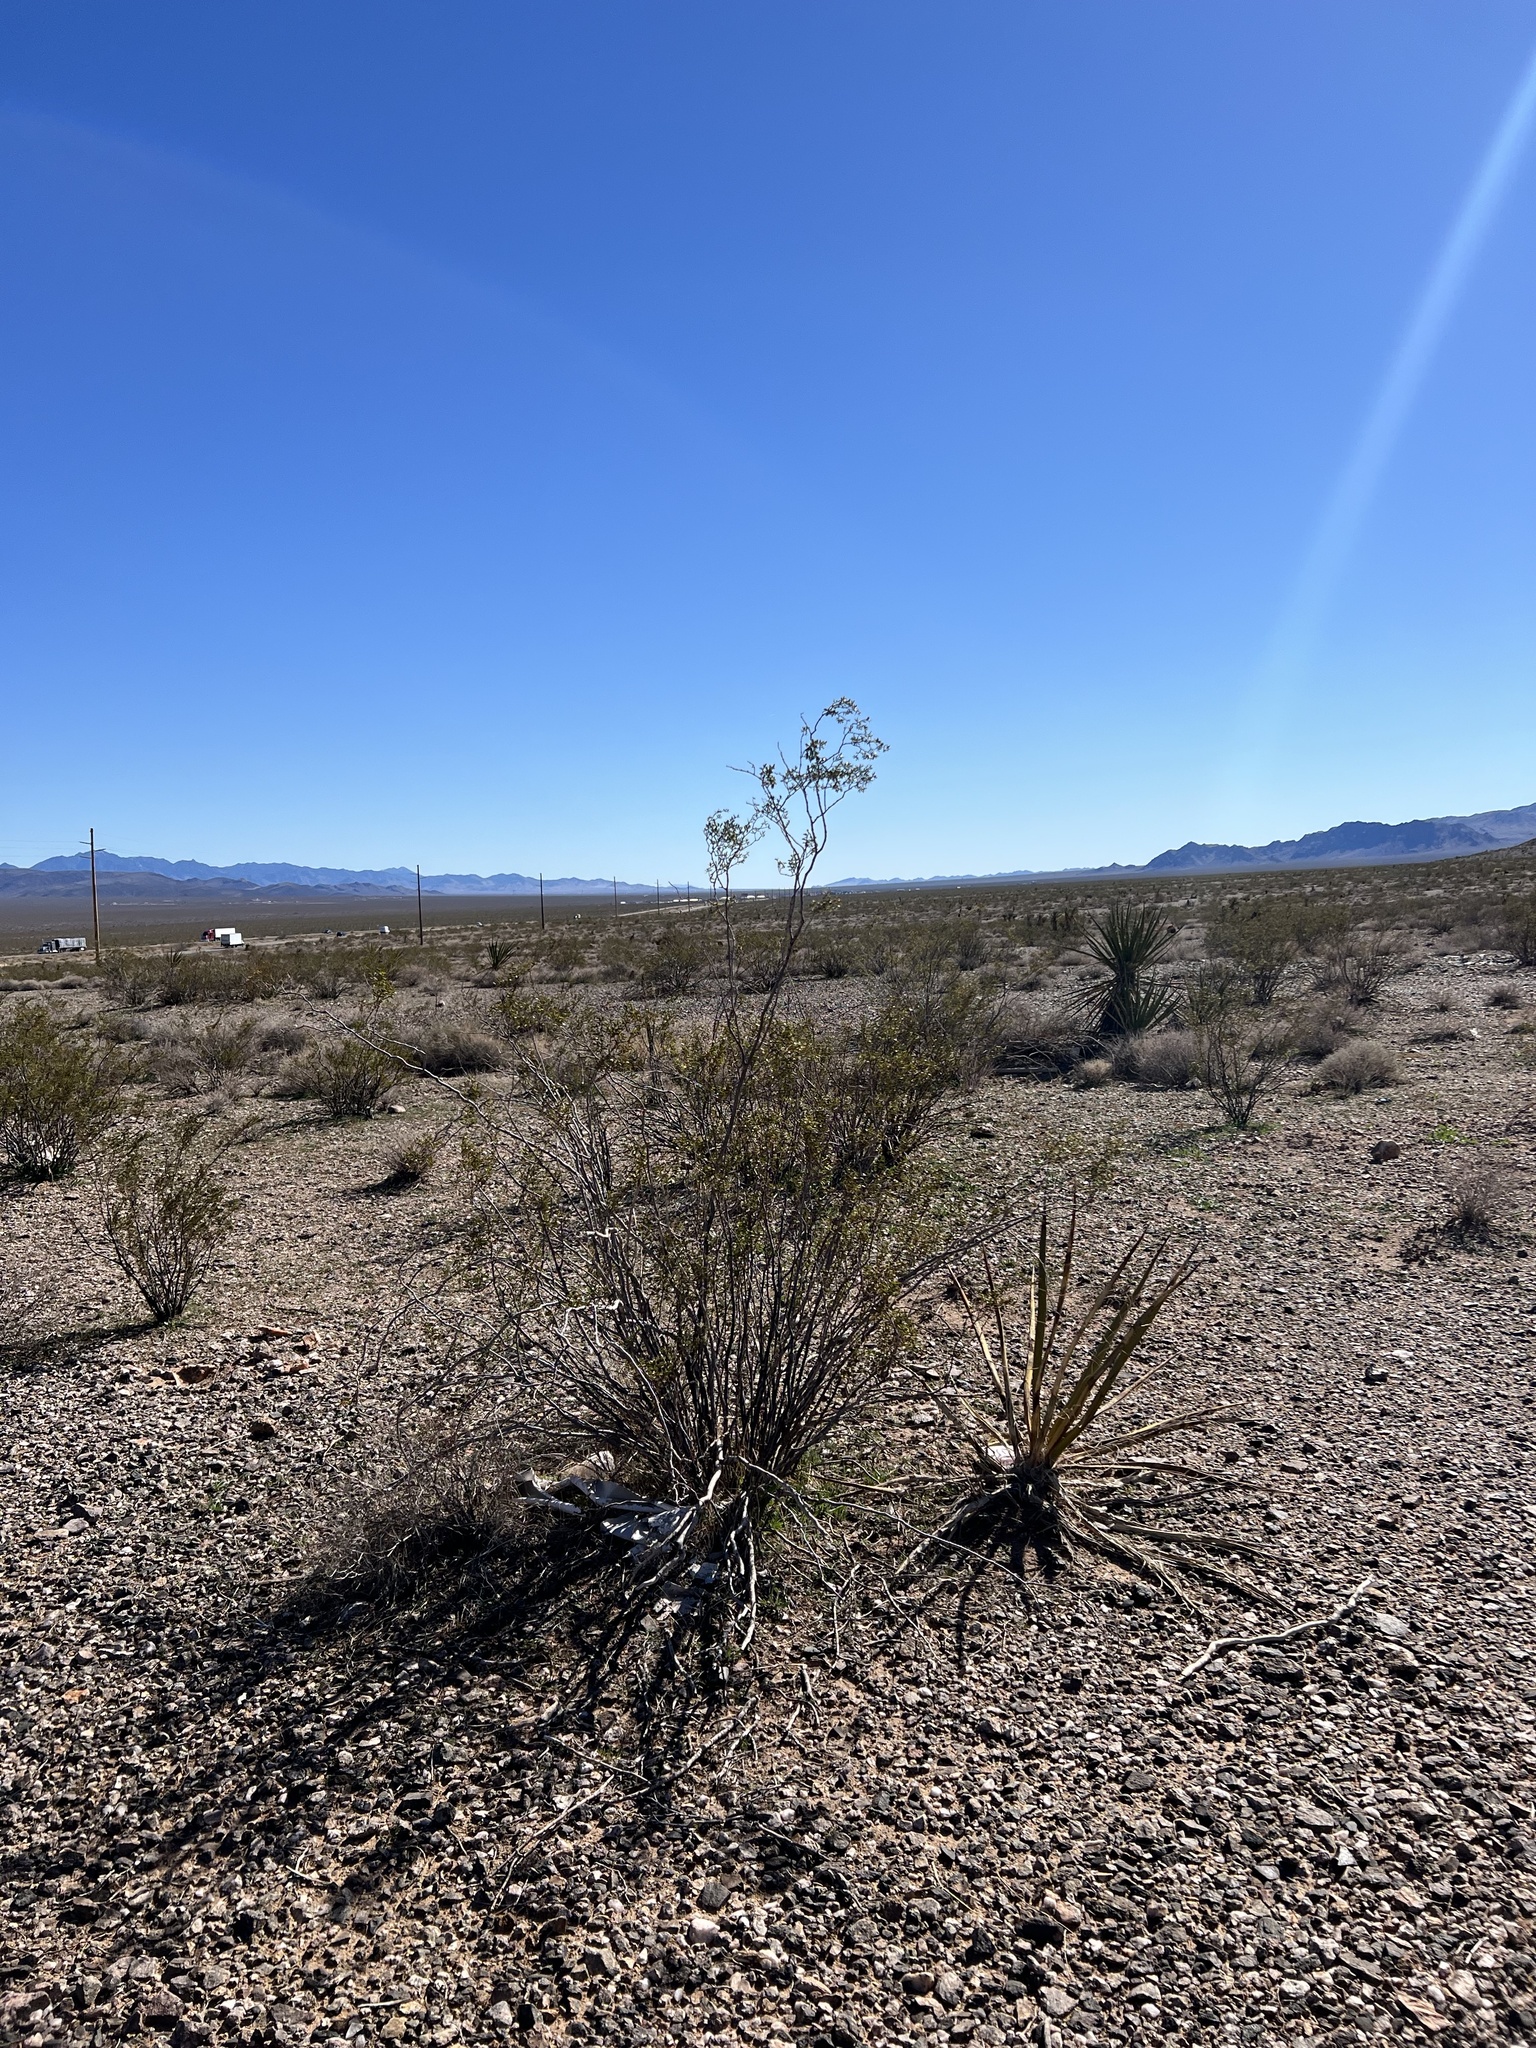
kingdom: Plantae
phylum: Tracheophyta
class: Magnoliopsida
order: Zygophyllales
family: Zygophyllaceae
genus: Larrea
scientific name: Larrea tridentata
